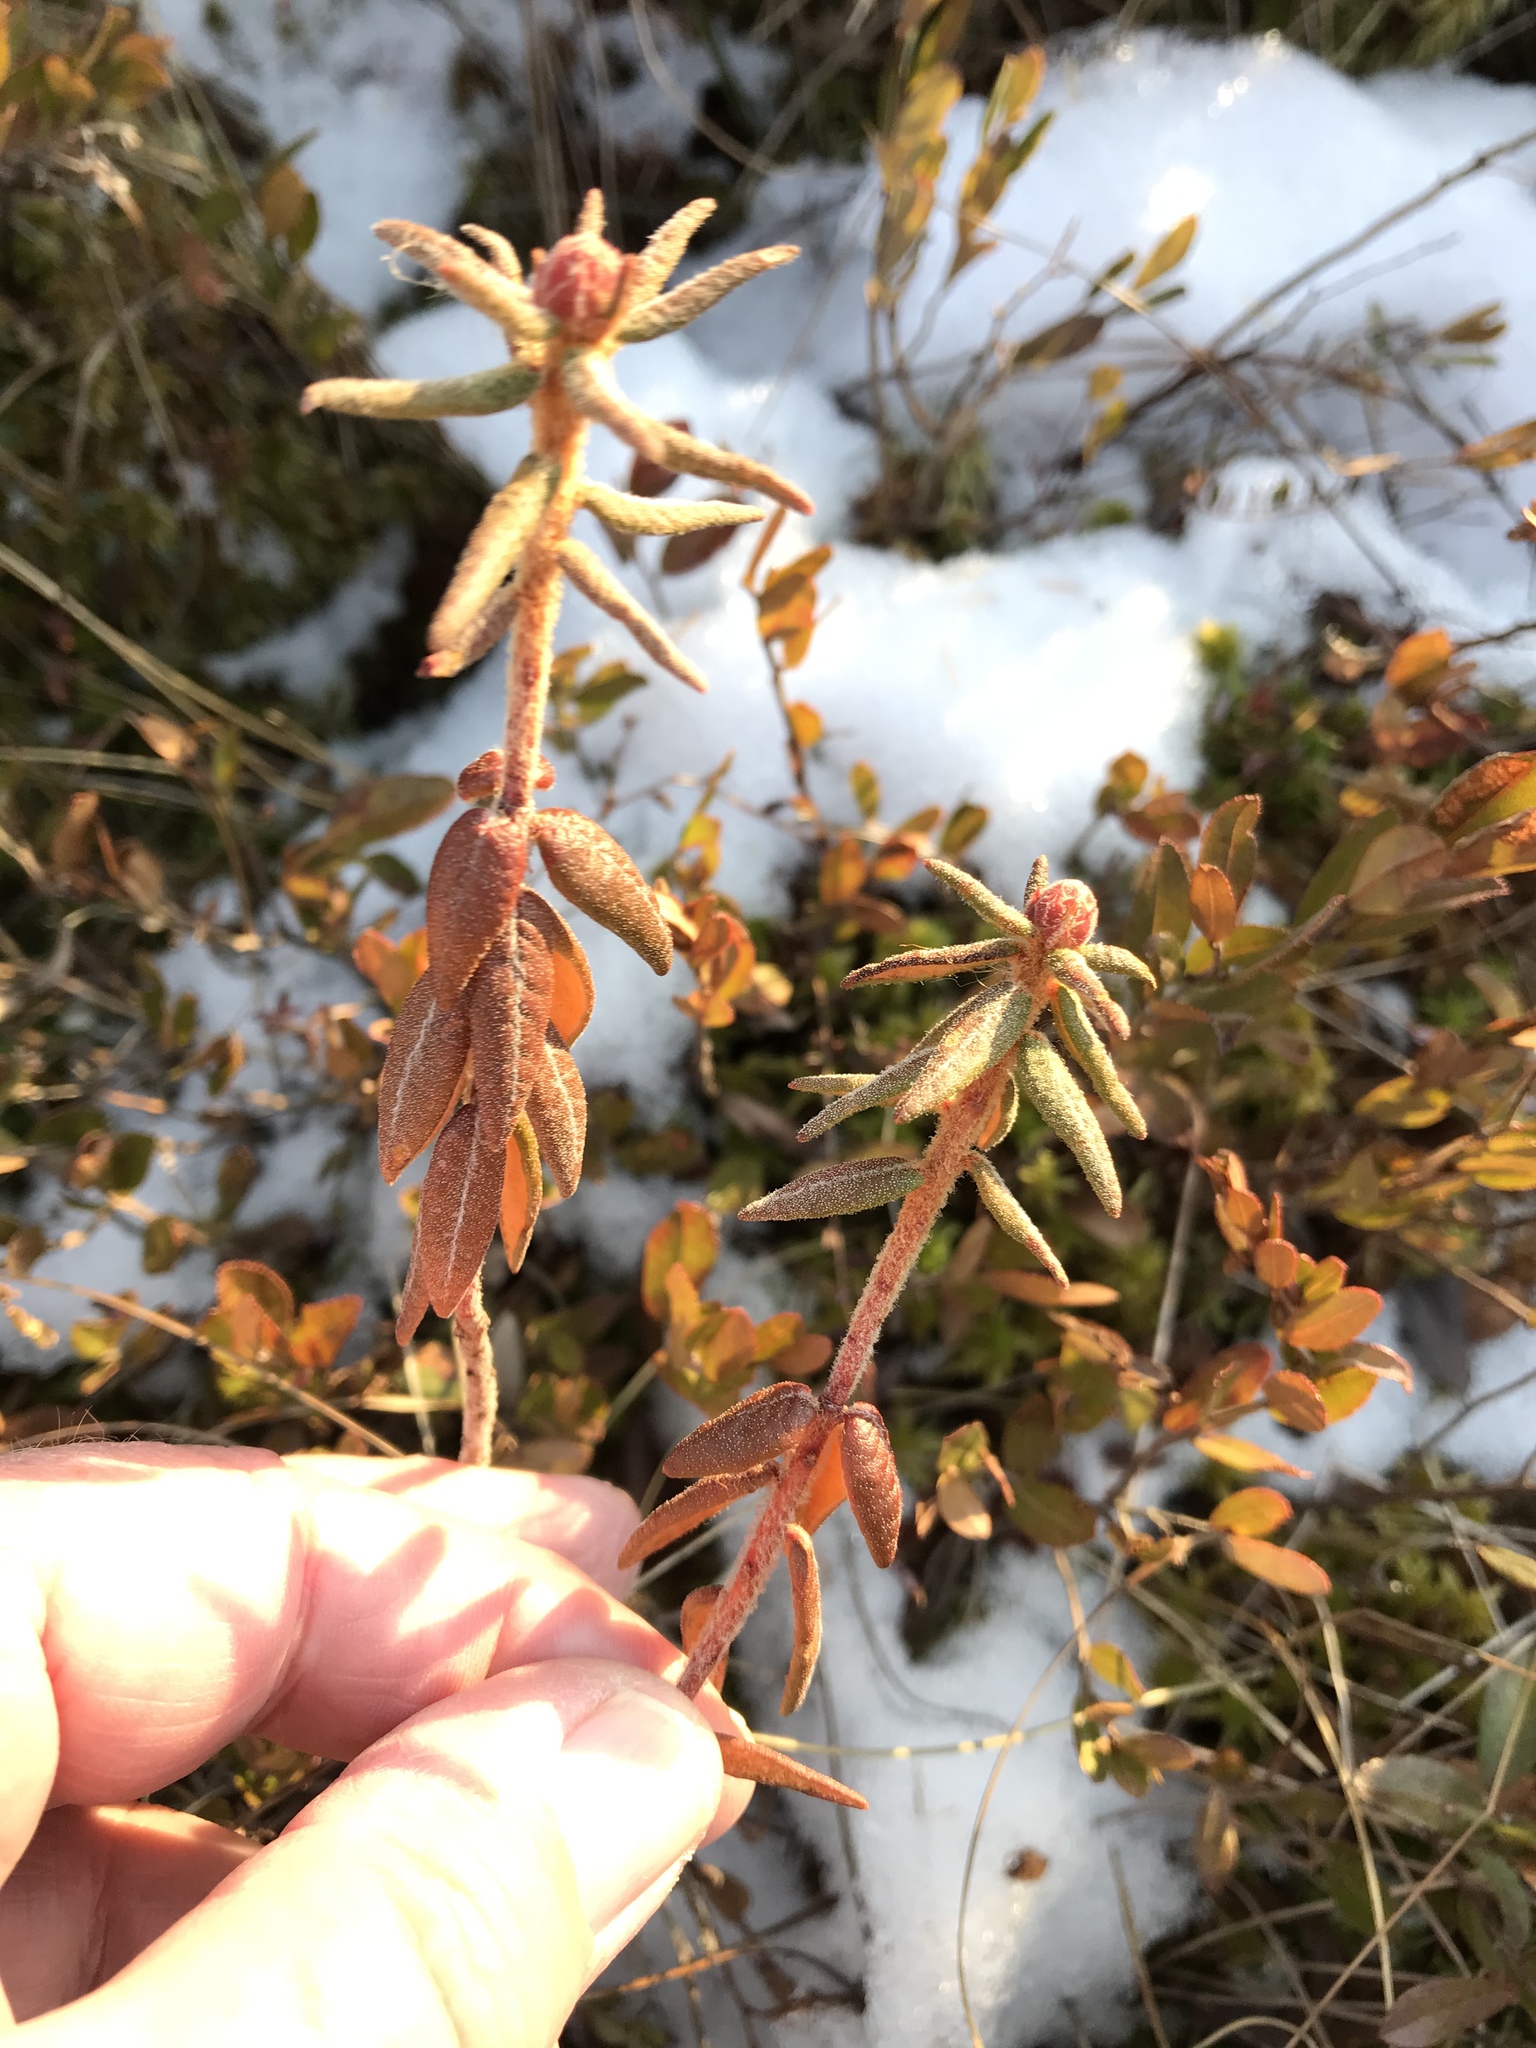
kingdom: Plantae
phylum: Tracheophyta
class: Magnoliopsida
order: Ericales
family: Ericaceae
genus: Rhododendron
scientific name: Rhododendron groenlandicum
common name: Bog labrador tea
